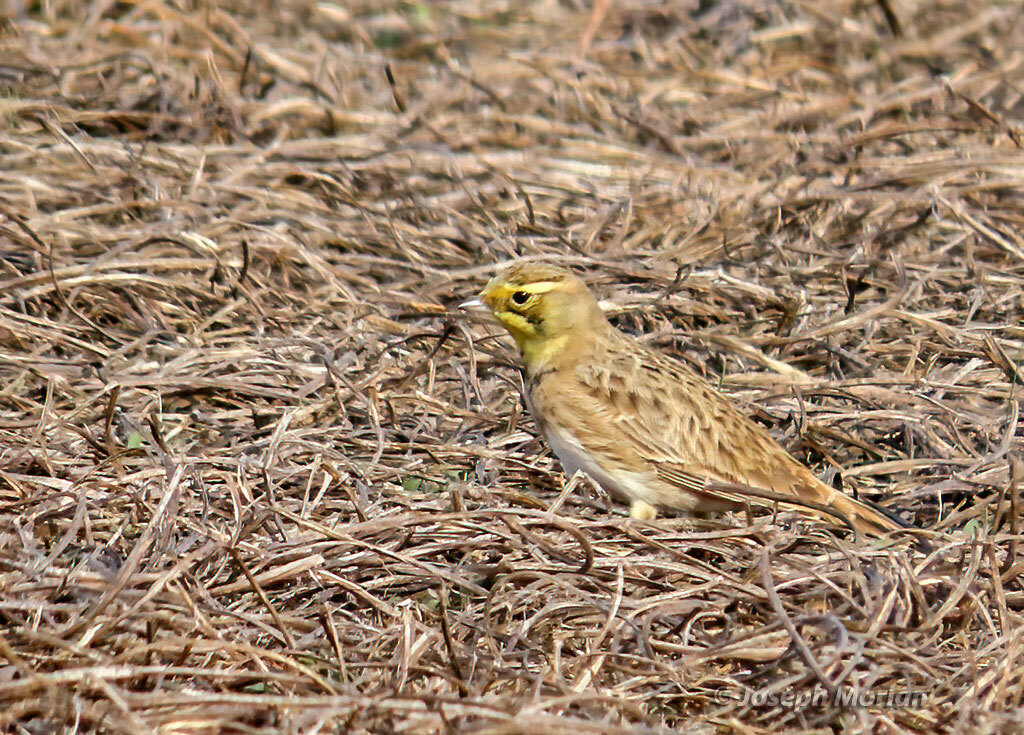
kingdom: Animalia
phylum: Chordata
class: Aves
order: Passeriformes
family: Alaudidae
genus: Eremophila
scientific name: Eremophila alpestris
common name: Horned lark
